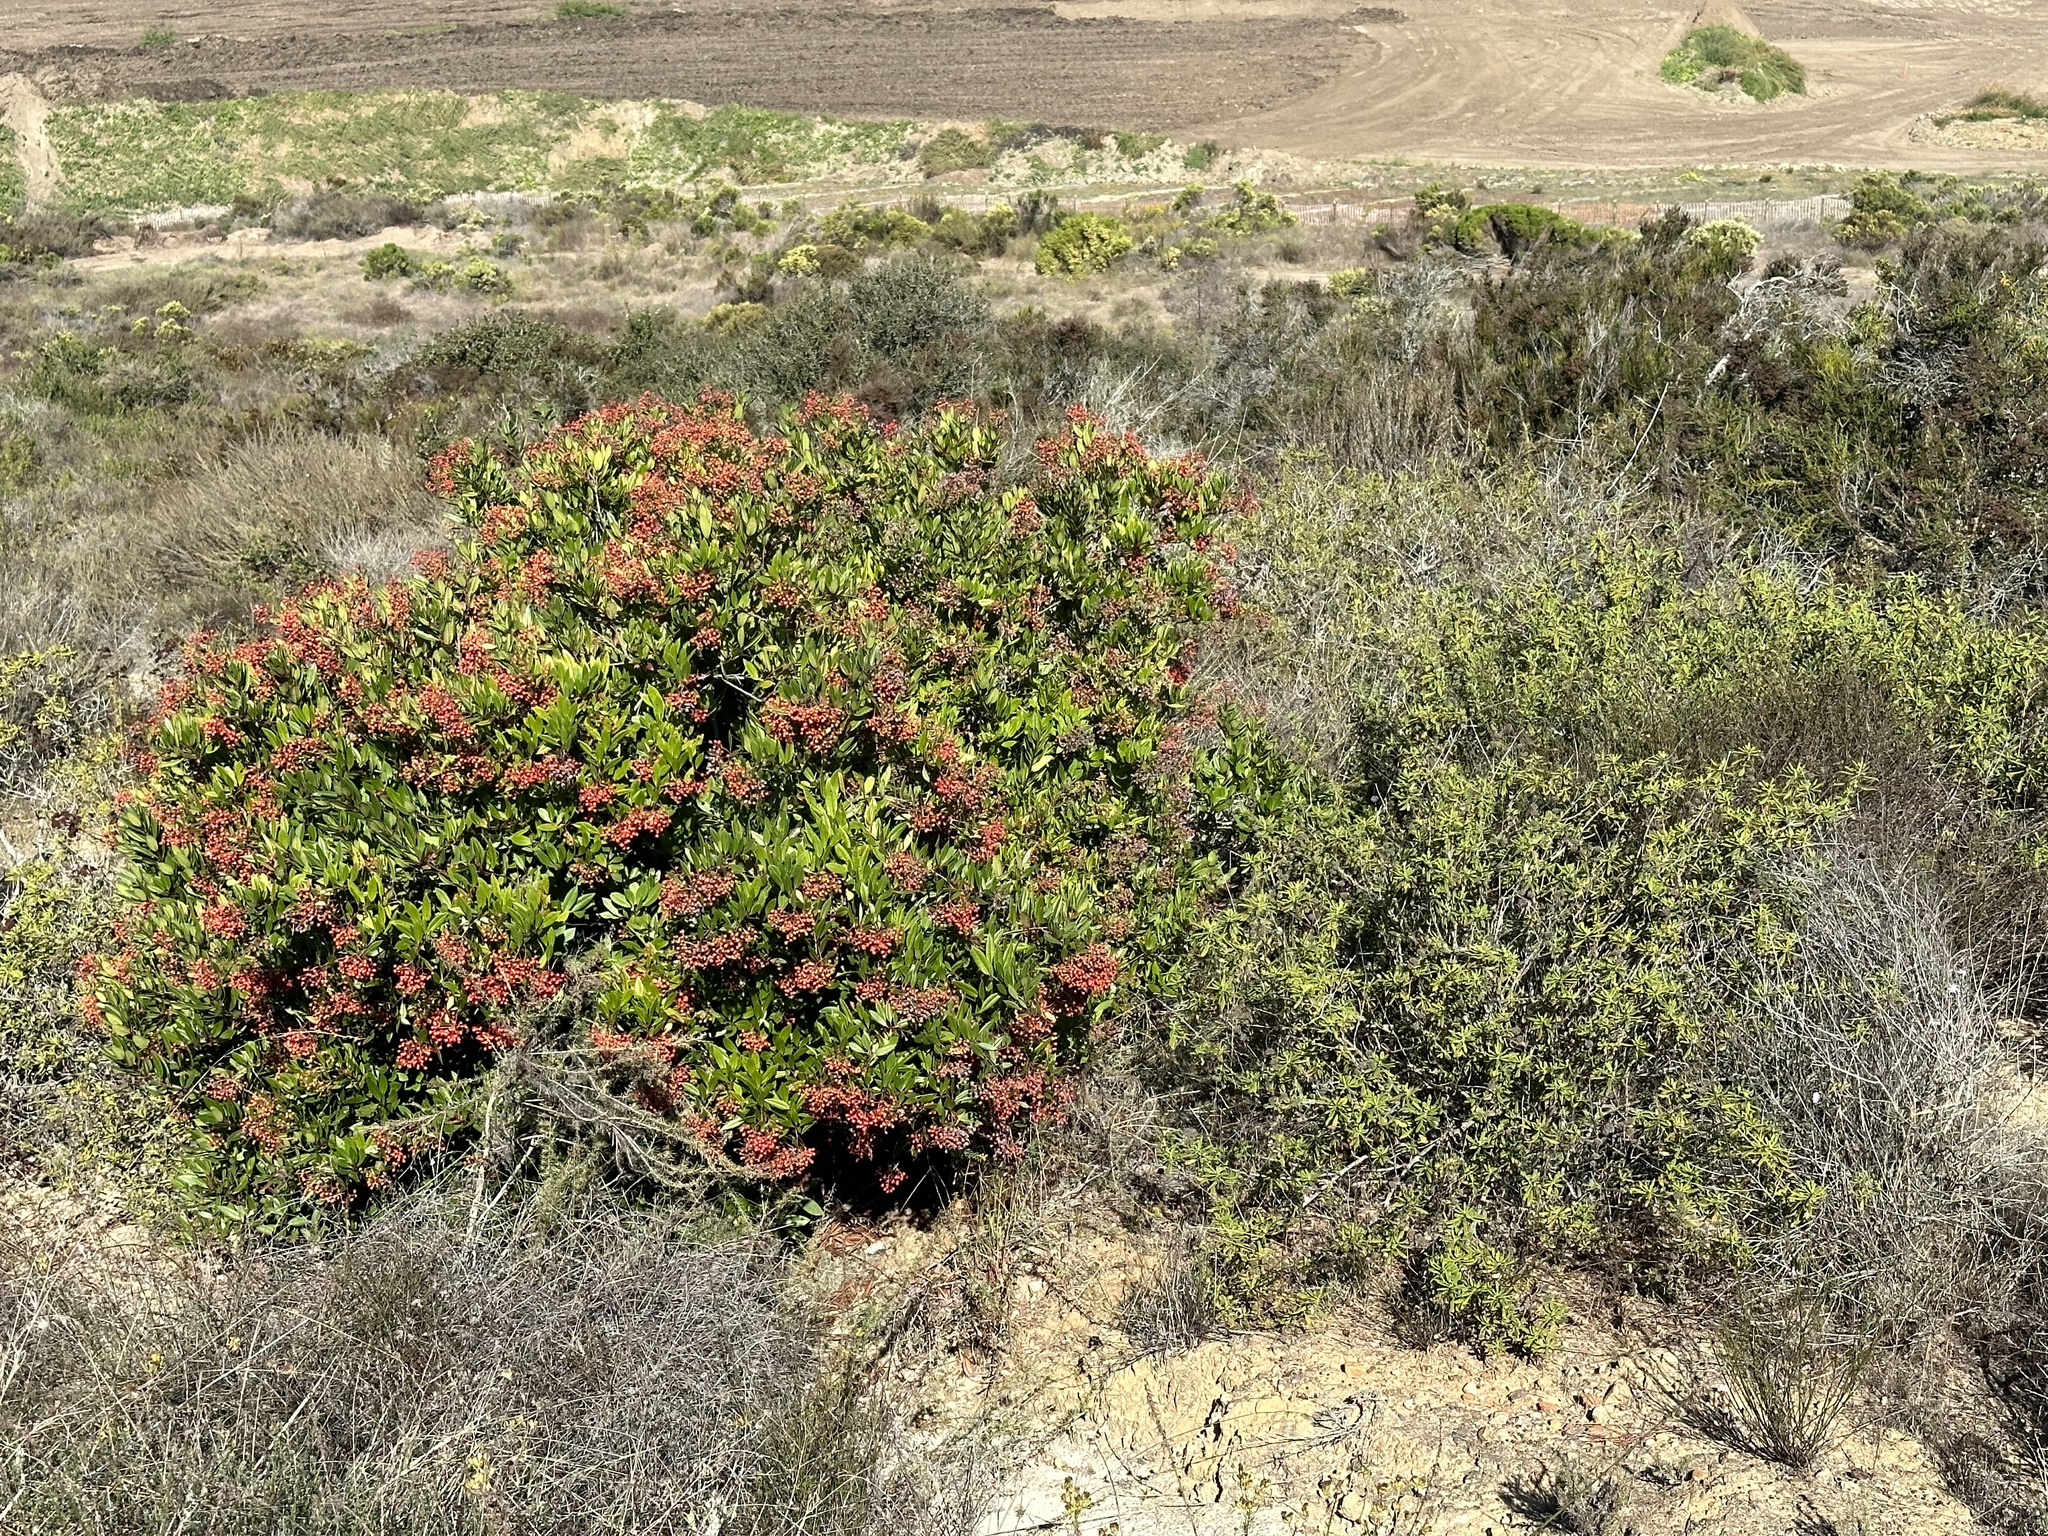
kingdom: Plantae
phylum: Tracheophyta
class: Magnoliopsida
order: Rosales
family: Rosaceae
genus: Heteromeles
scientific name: Heteromeles arbutifolia
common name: California-holly
